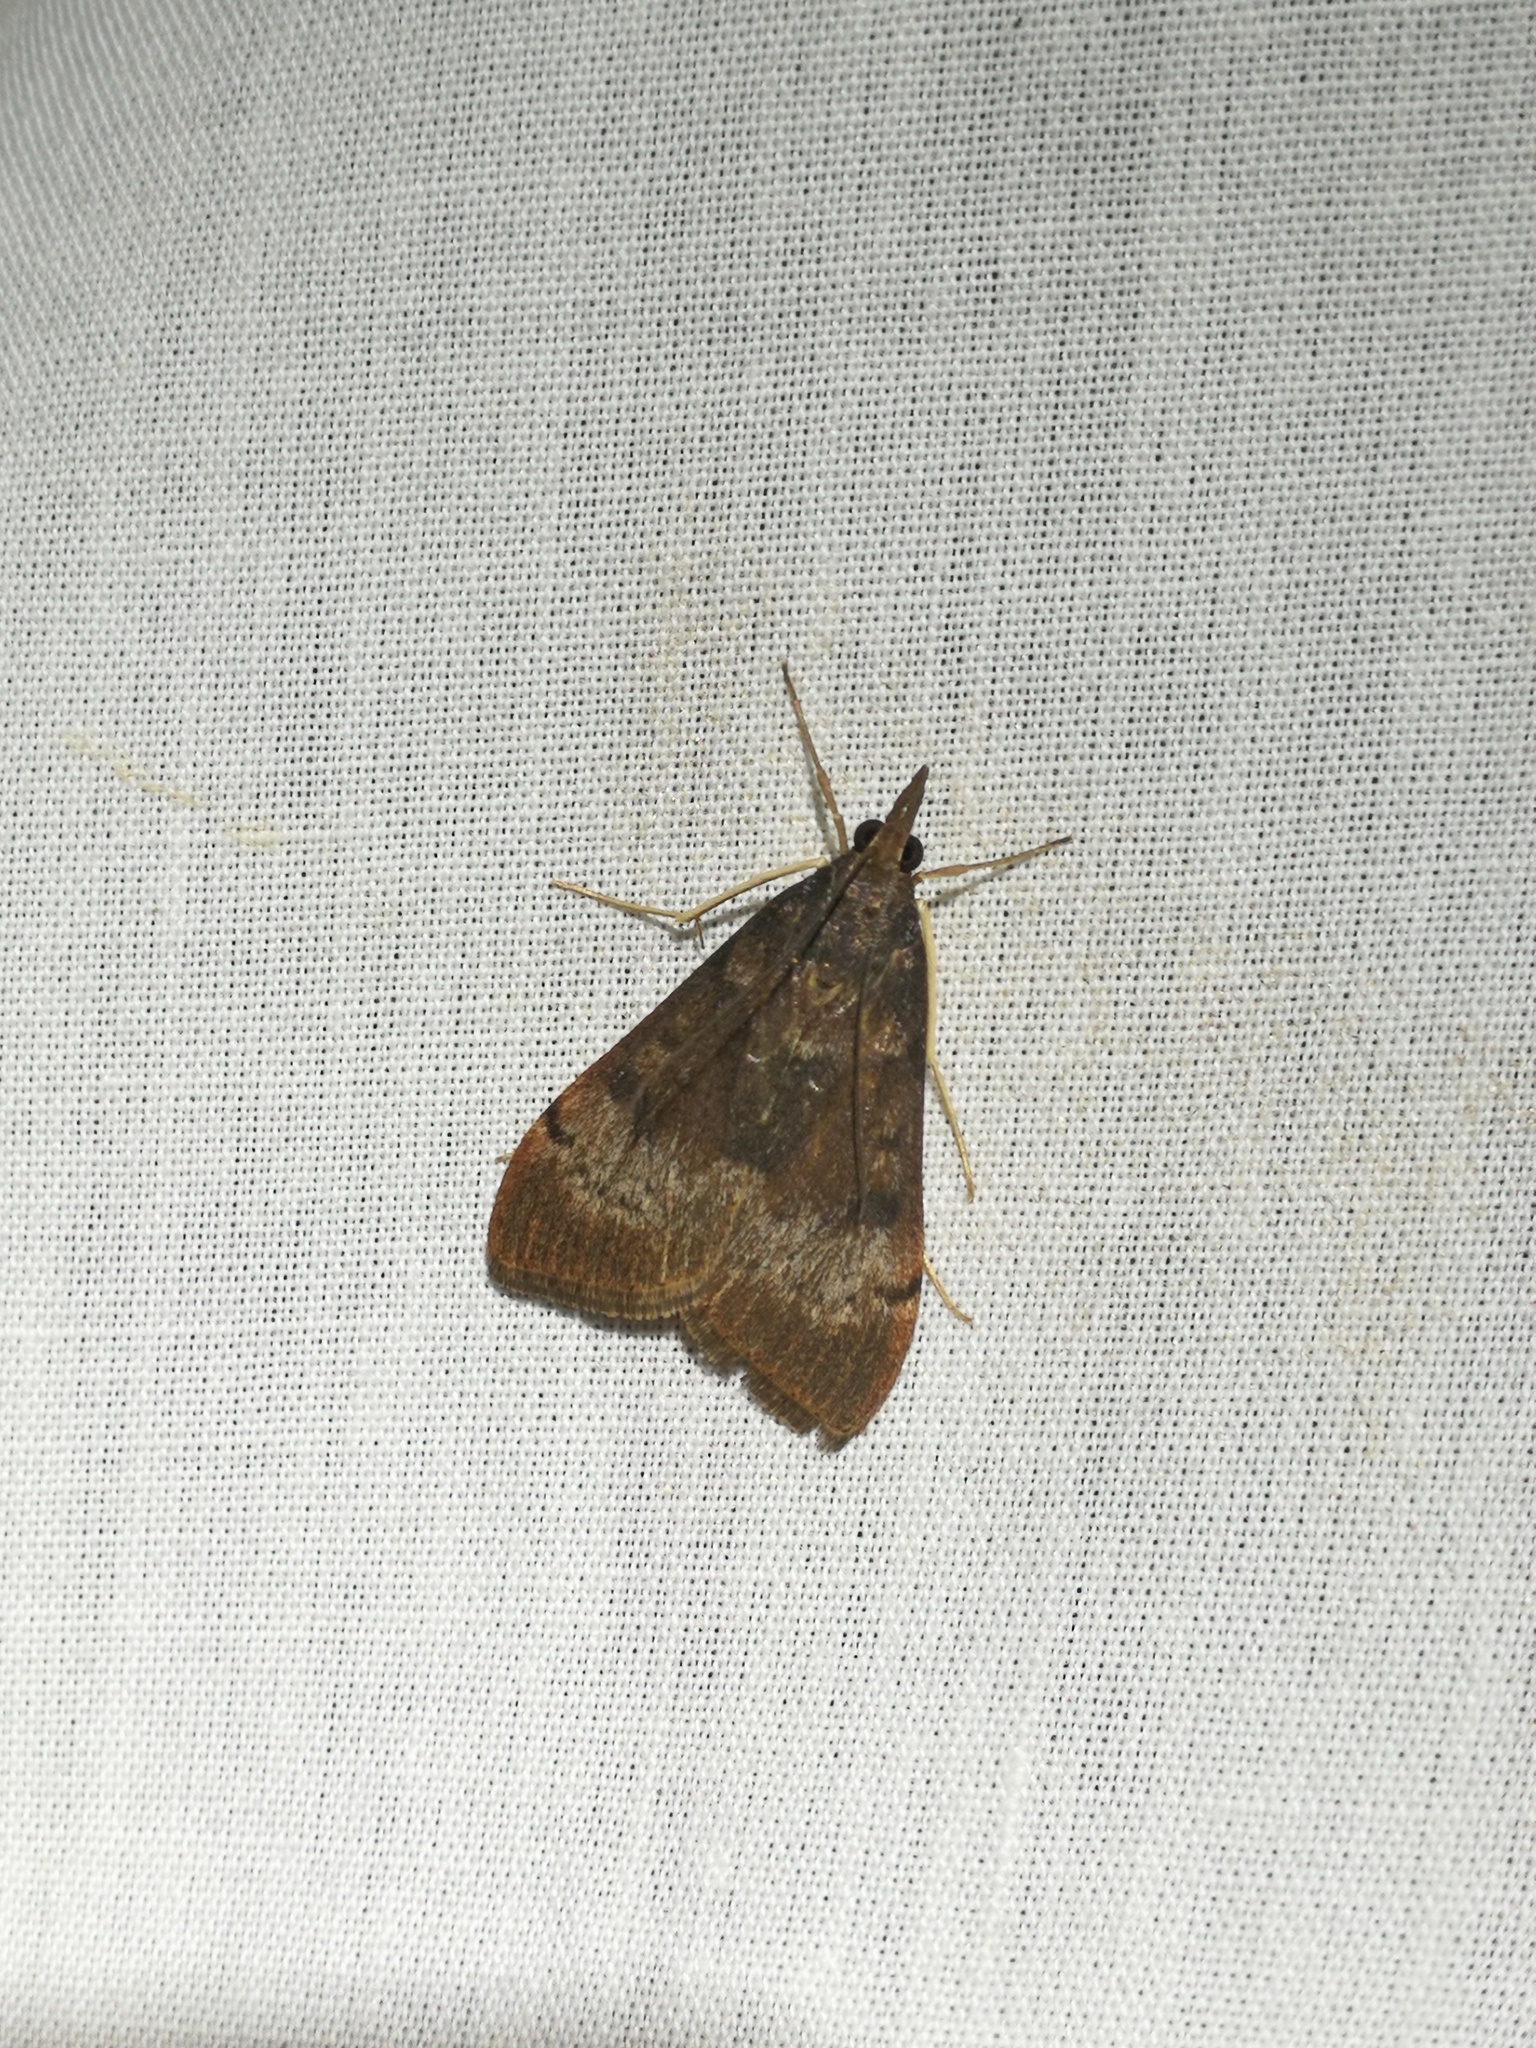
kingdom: Animalia
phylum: Arthropoda
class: Insecta
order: Lepidoptera
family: Crambidae
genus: Uresiphita
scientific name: Uresiphita gilvata
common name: Yellow-underwing pearl
